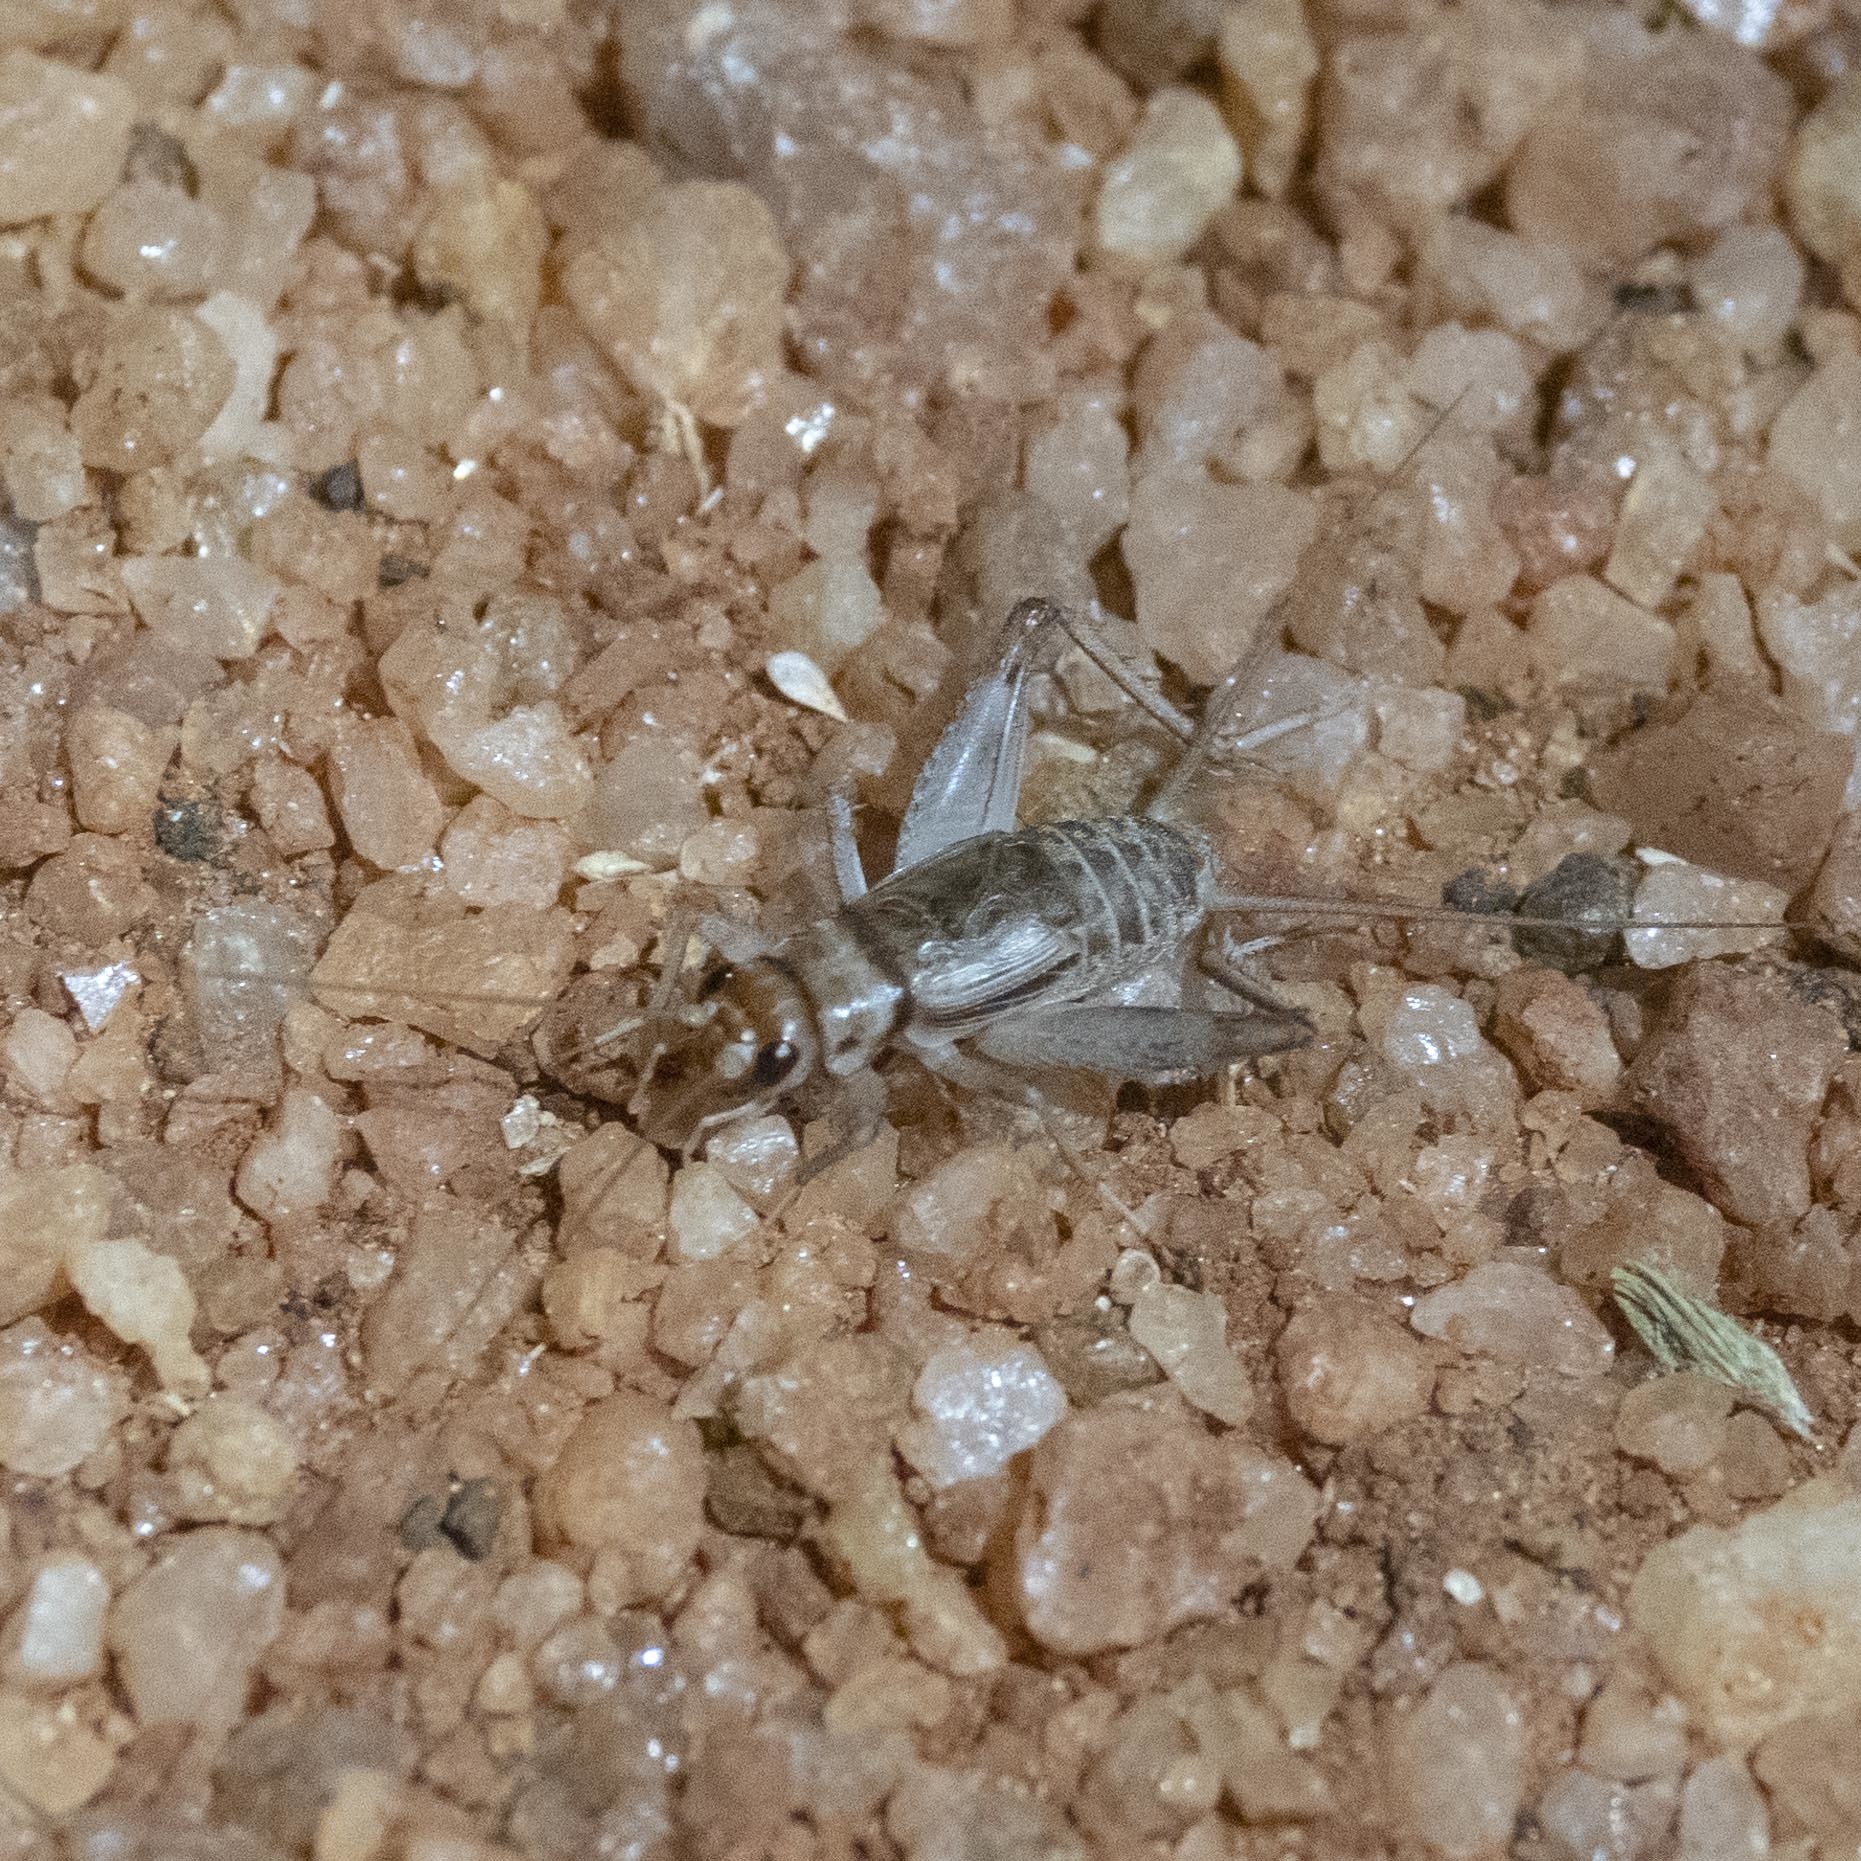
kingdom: Animalia
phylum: Arthropoda
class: Insecta
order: Orthoptera
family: Gryllidae
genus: Gryllodes
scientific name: Gryllodes sigillatus
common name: Tropical house cricket
